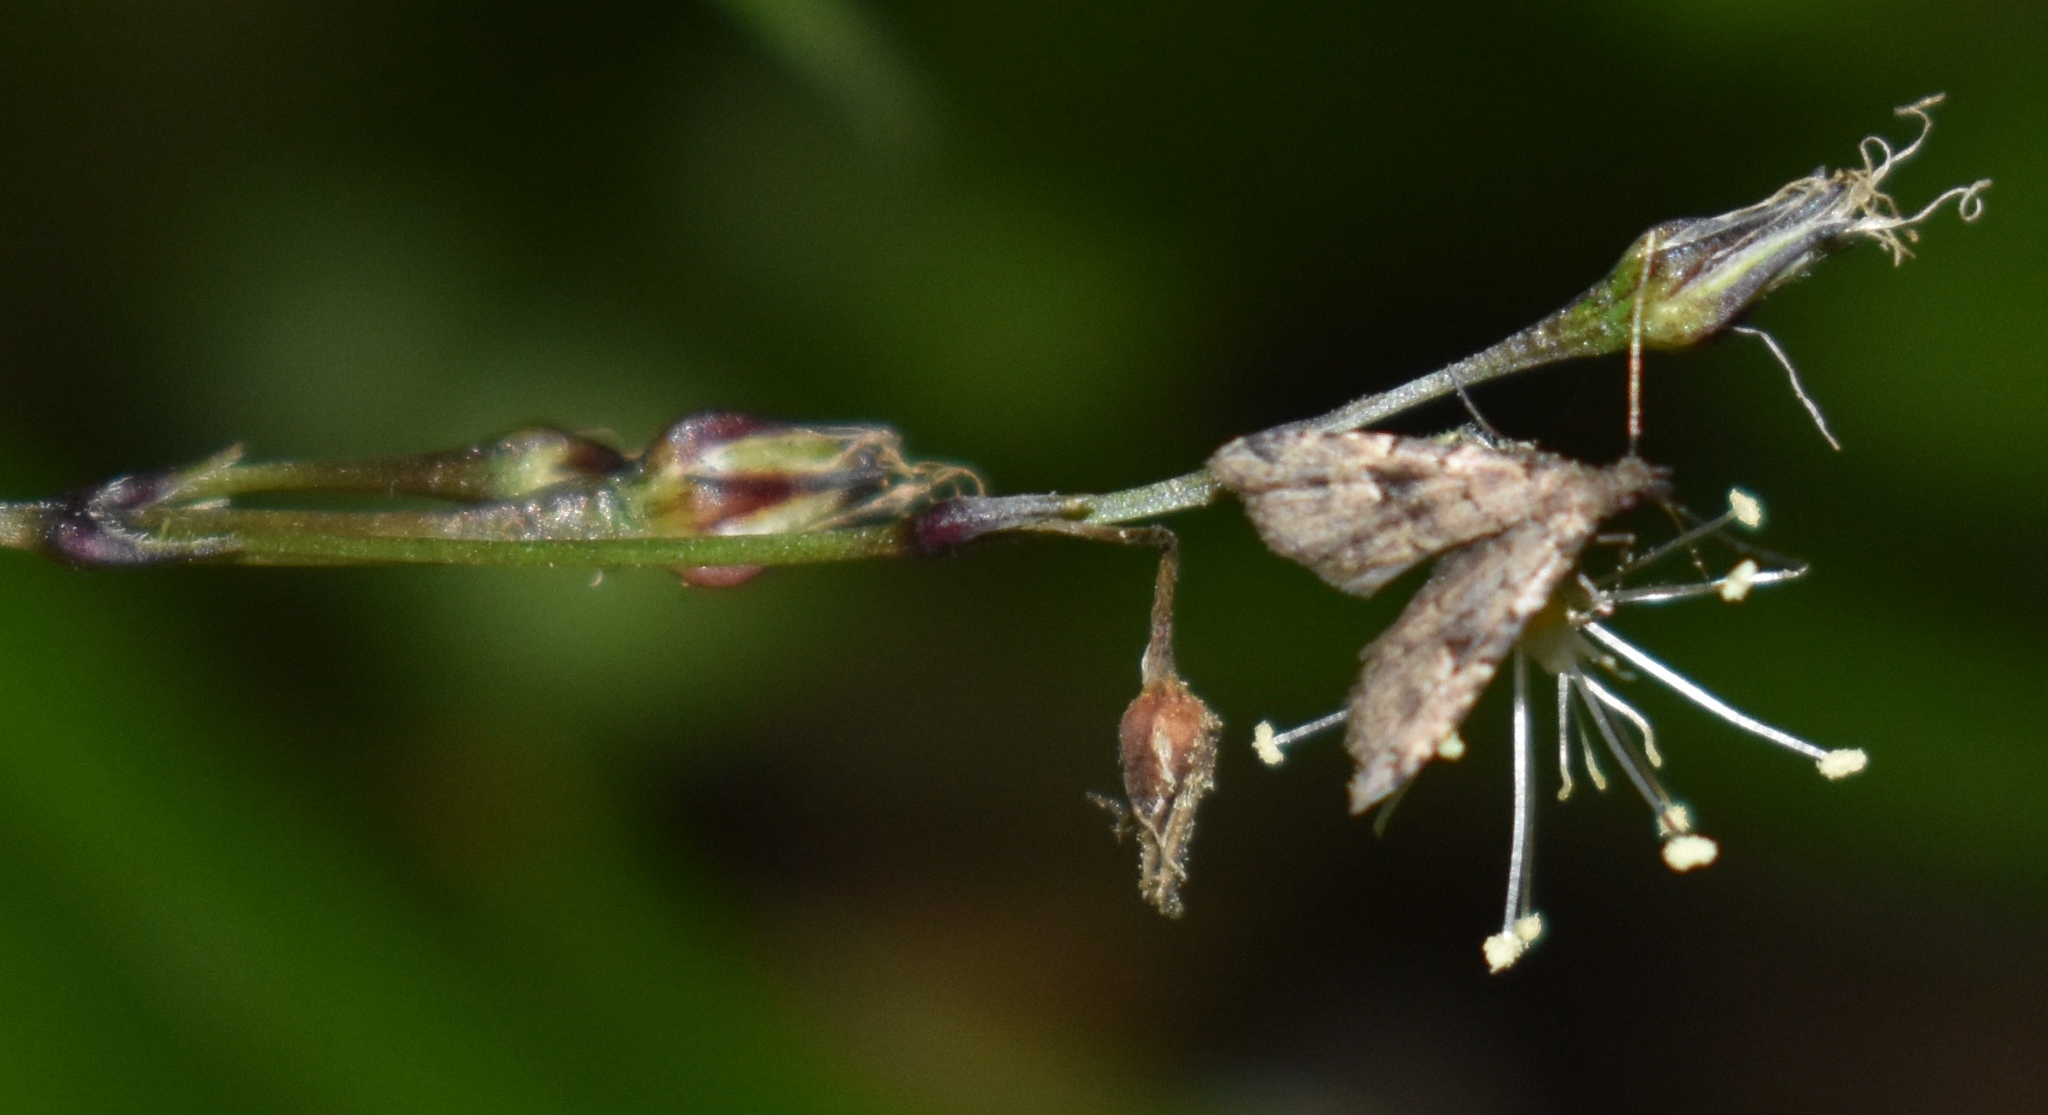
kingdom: Animalia
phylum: Arthropoda
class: Insecta
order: Lepidoptera
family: Erebidae
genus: Pseudoschrankia
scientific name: Pseudoschrankia brevipalpis
